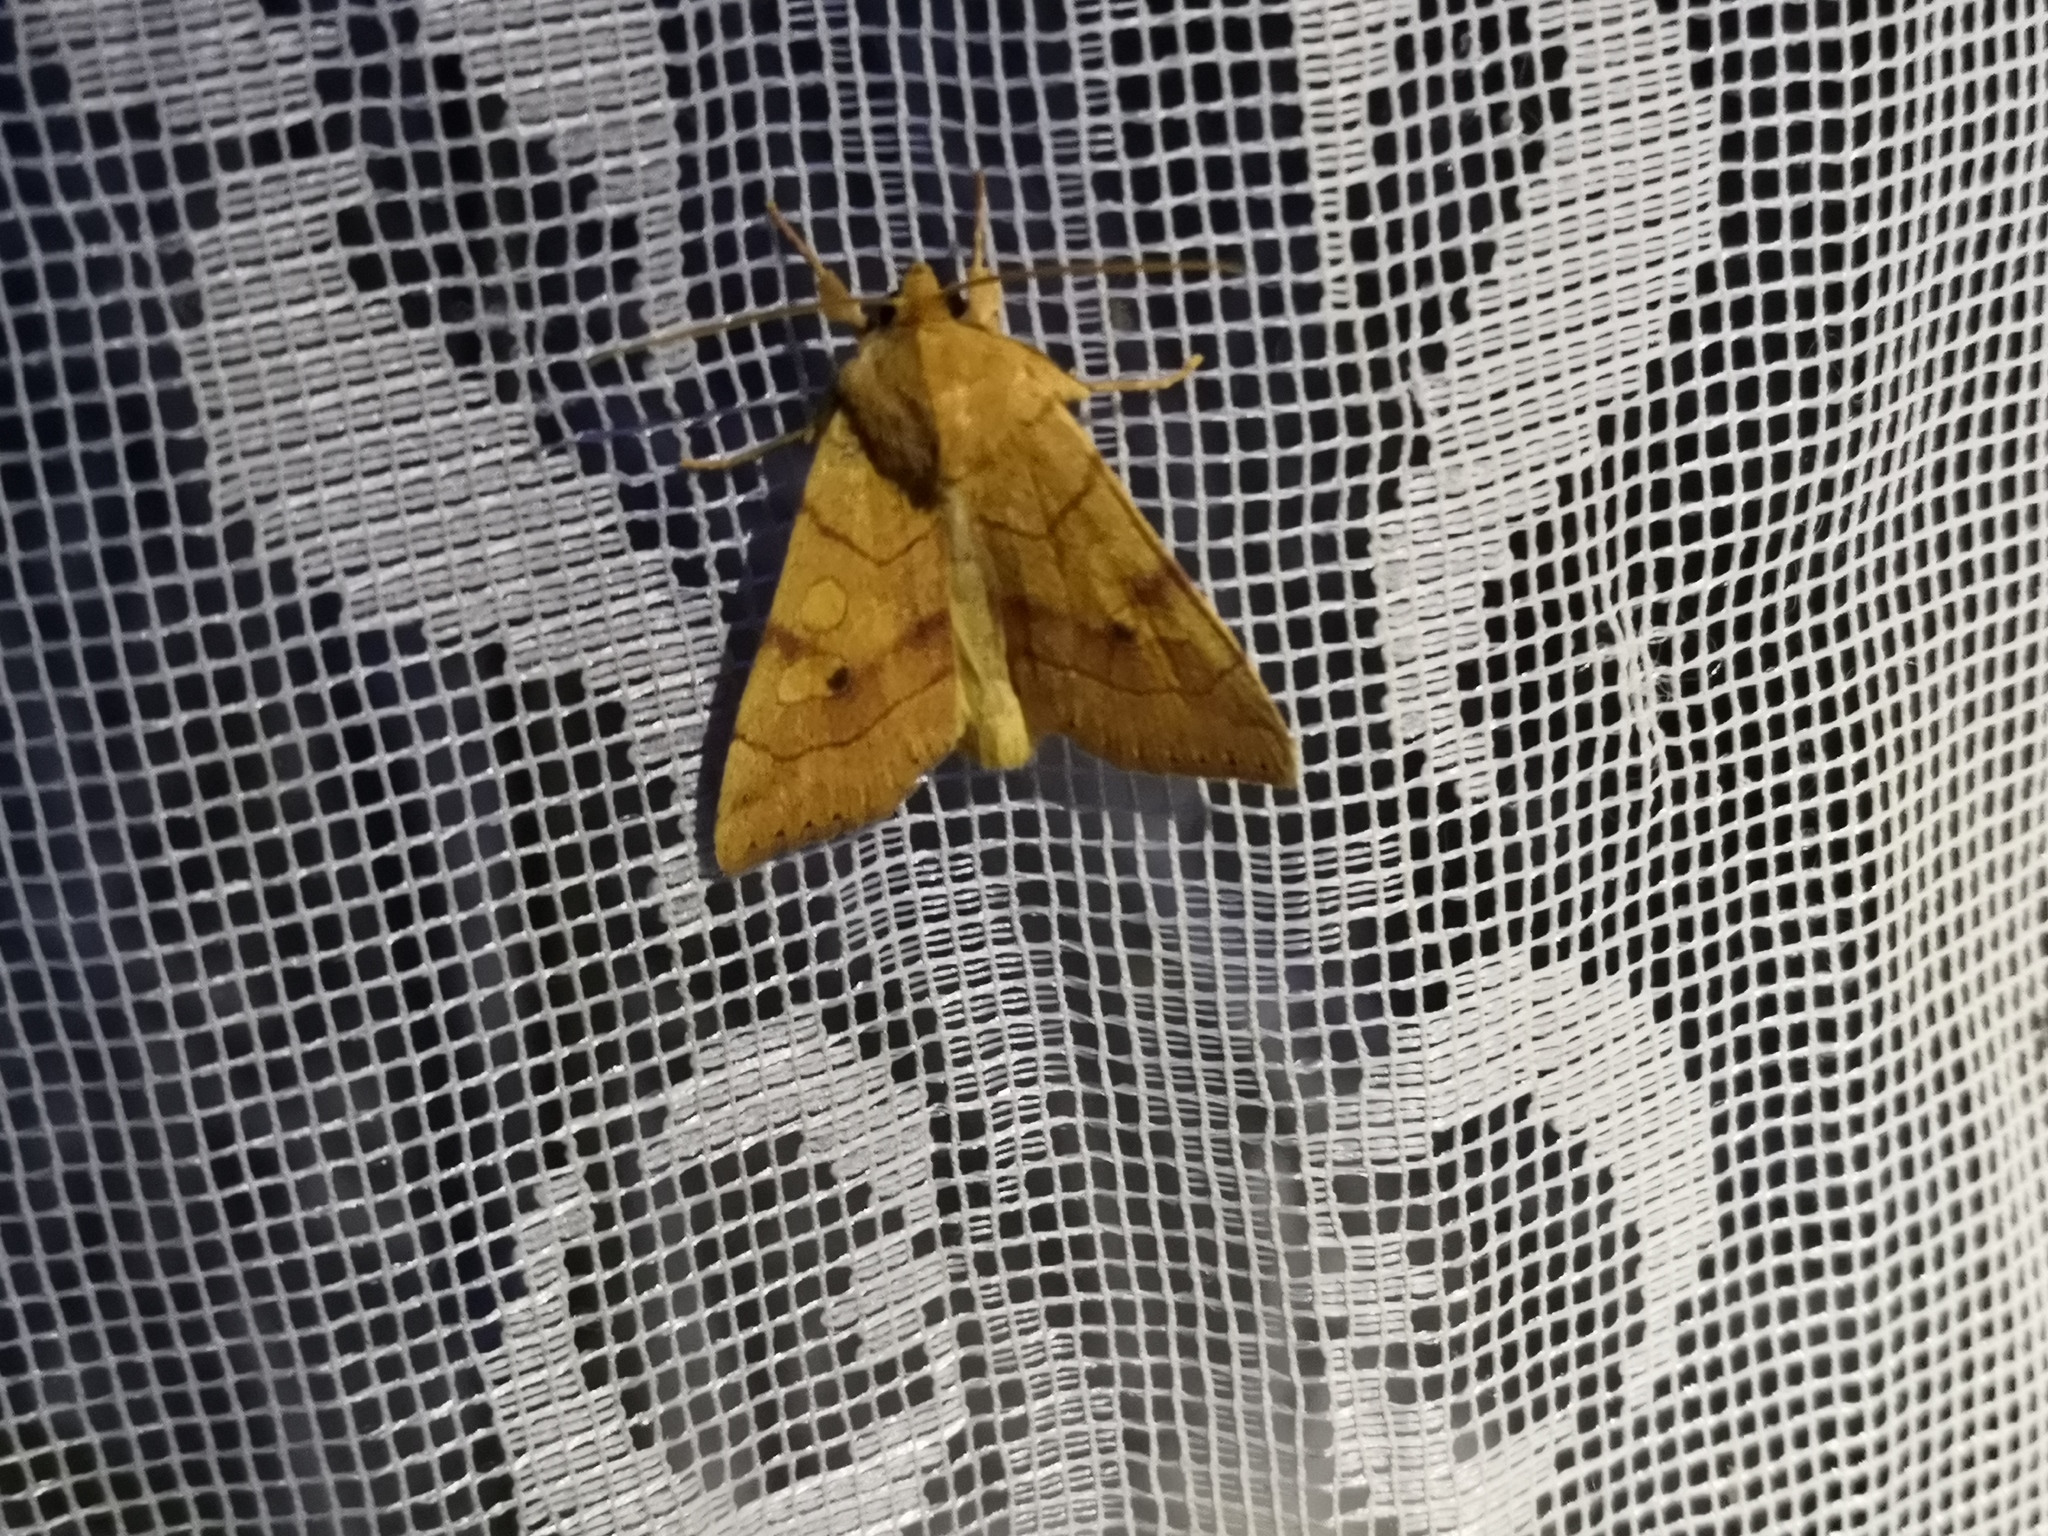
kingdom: Animalia
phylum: Arthropoda
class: Insecta
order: Lepidoptera
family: Noctuidae
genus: Enargia
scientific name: Enargia paleacea
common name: Angle-striped sallow
